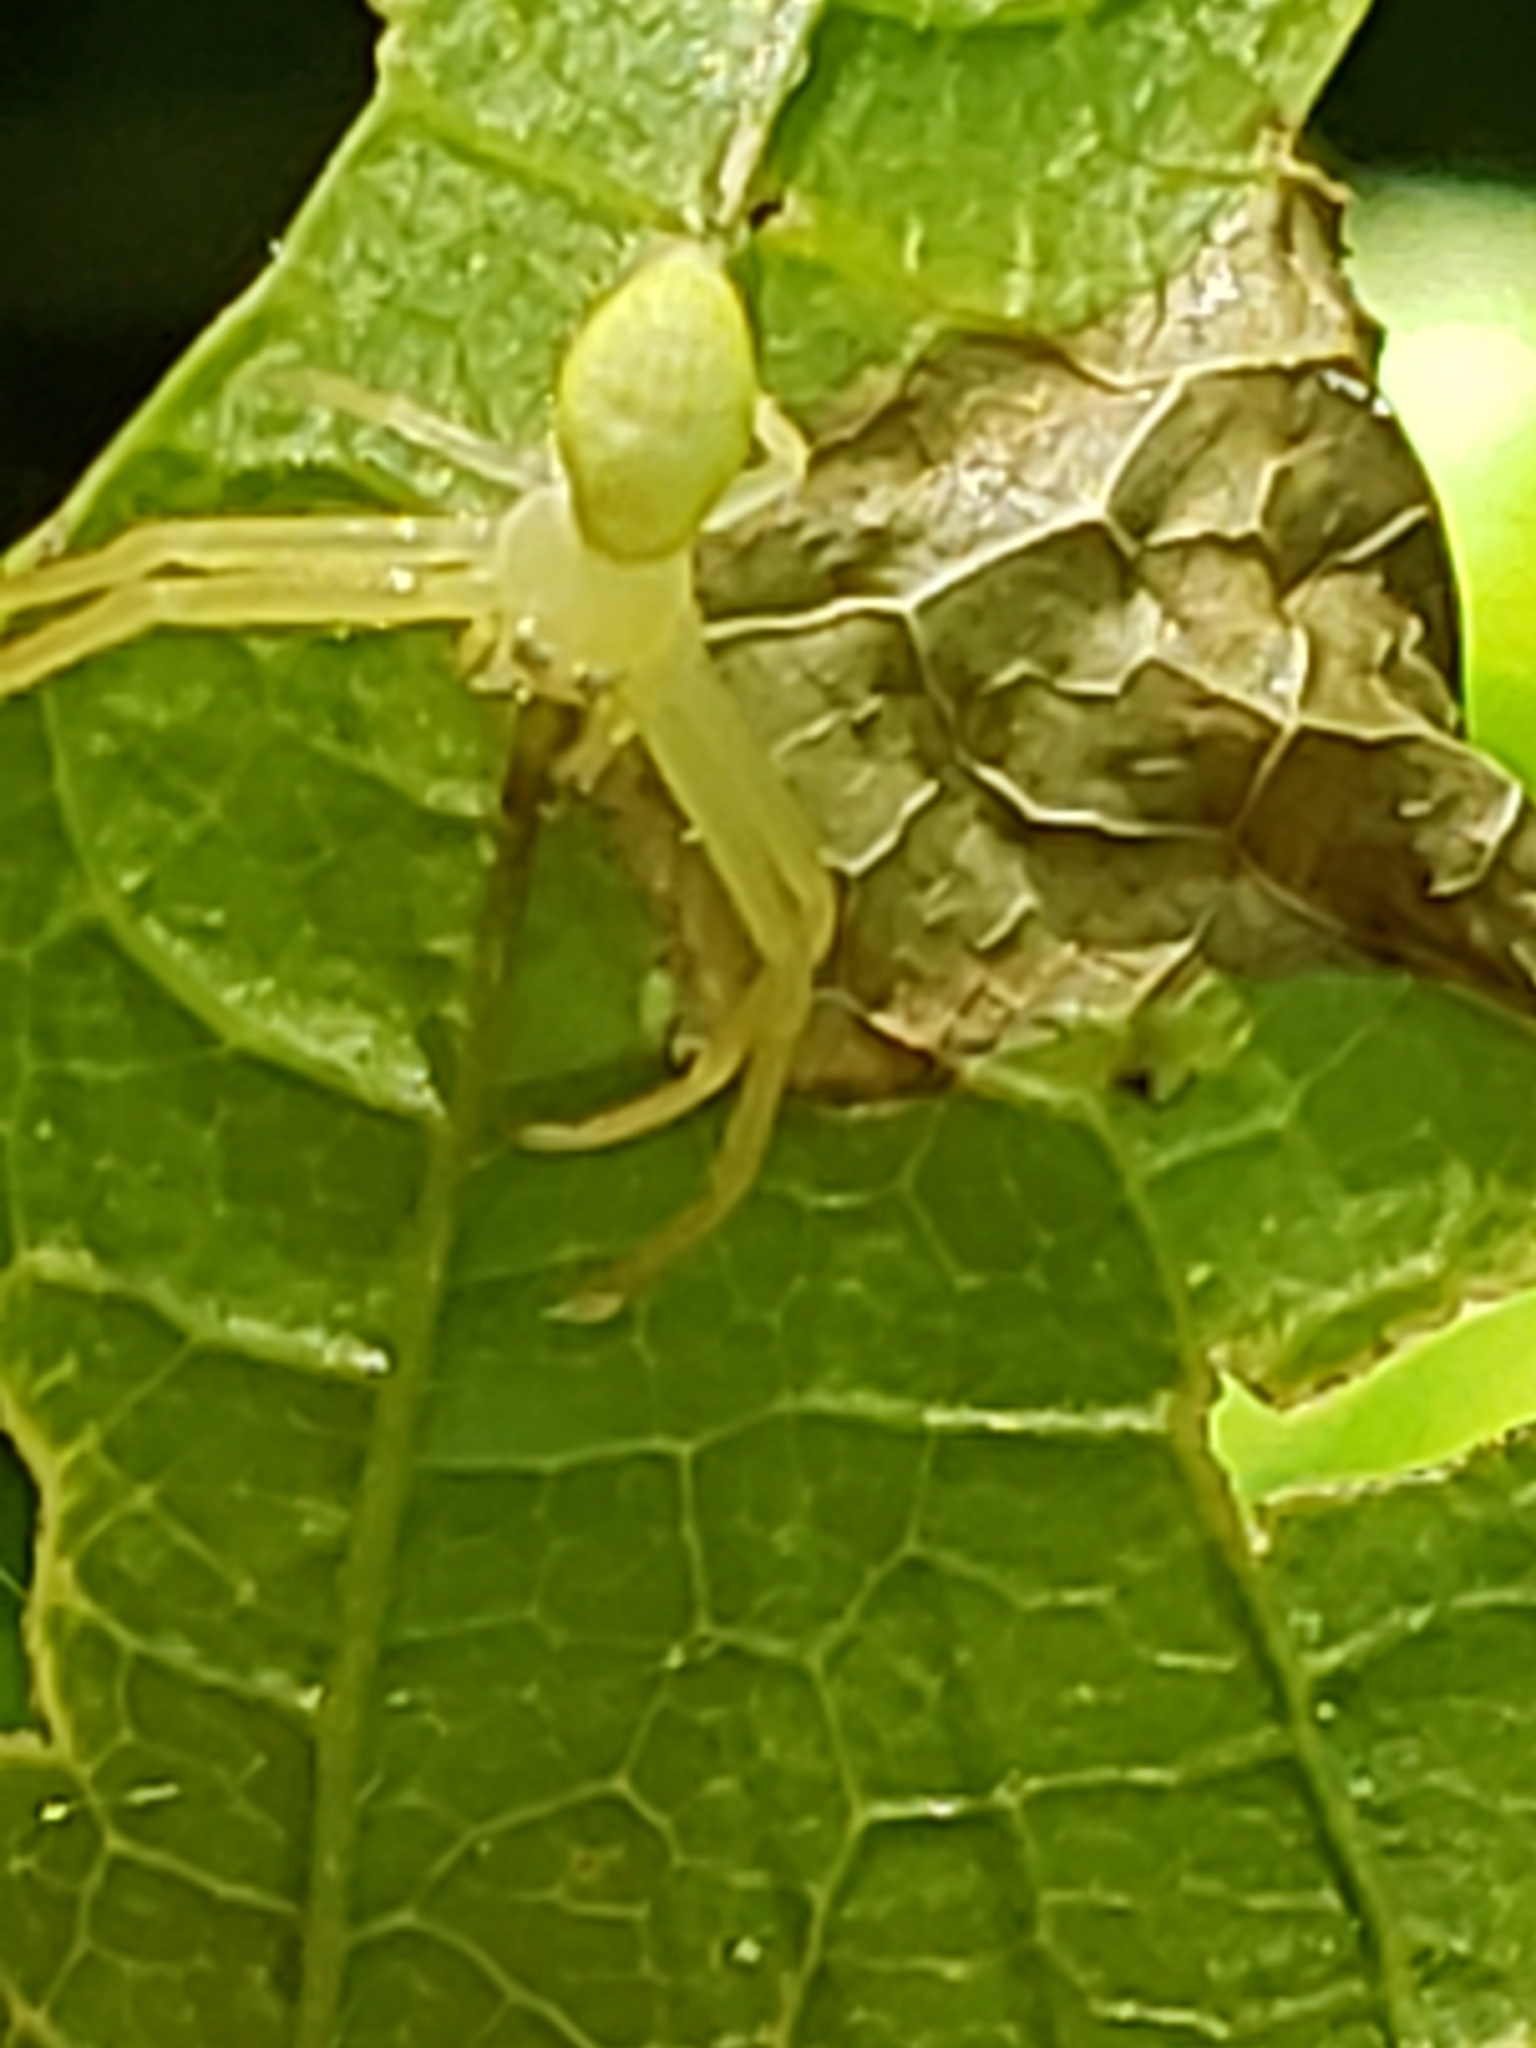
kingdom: Animalia
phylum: Arthropoda
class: Arachnida
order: Araneae
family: Thomisidae
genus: Misumessus
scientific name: Misumessus oblongus
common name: American green crab spider
